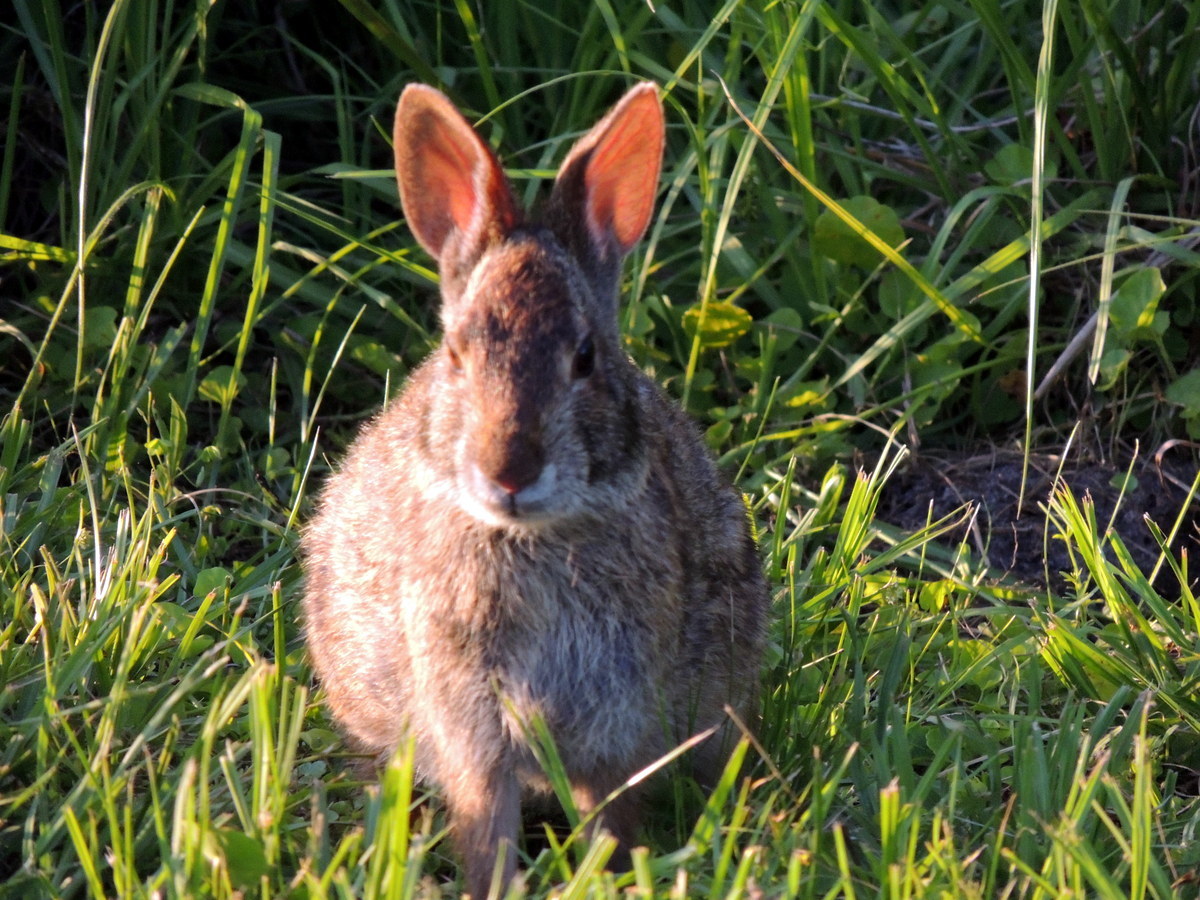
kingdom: Animalia
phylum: Chordata
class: Mammalia
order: Lagomorpha
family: Leporidae
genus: Sylvilagus
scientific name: Sylvilagus palustris
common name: Marsh rabbit
